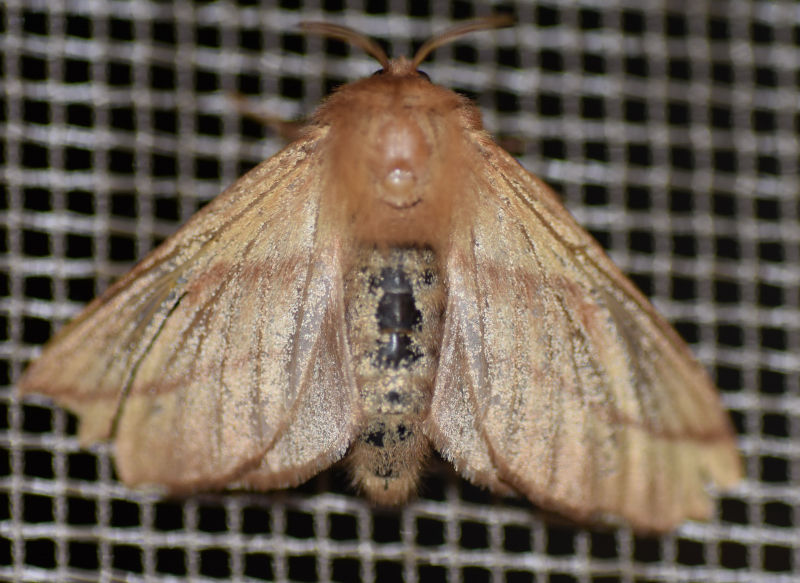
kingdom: Animalia
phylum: Arthropoda
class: Insecta
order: Lepidoptera
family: Lasiocampidae
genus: Malacosoma
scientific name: Malacosoma disstria
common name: Forest tent caterpillar
